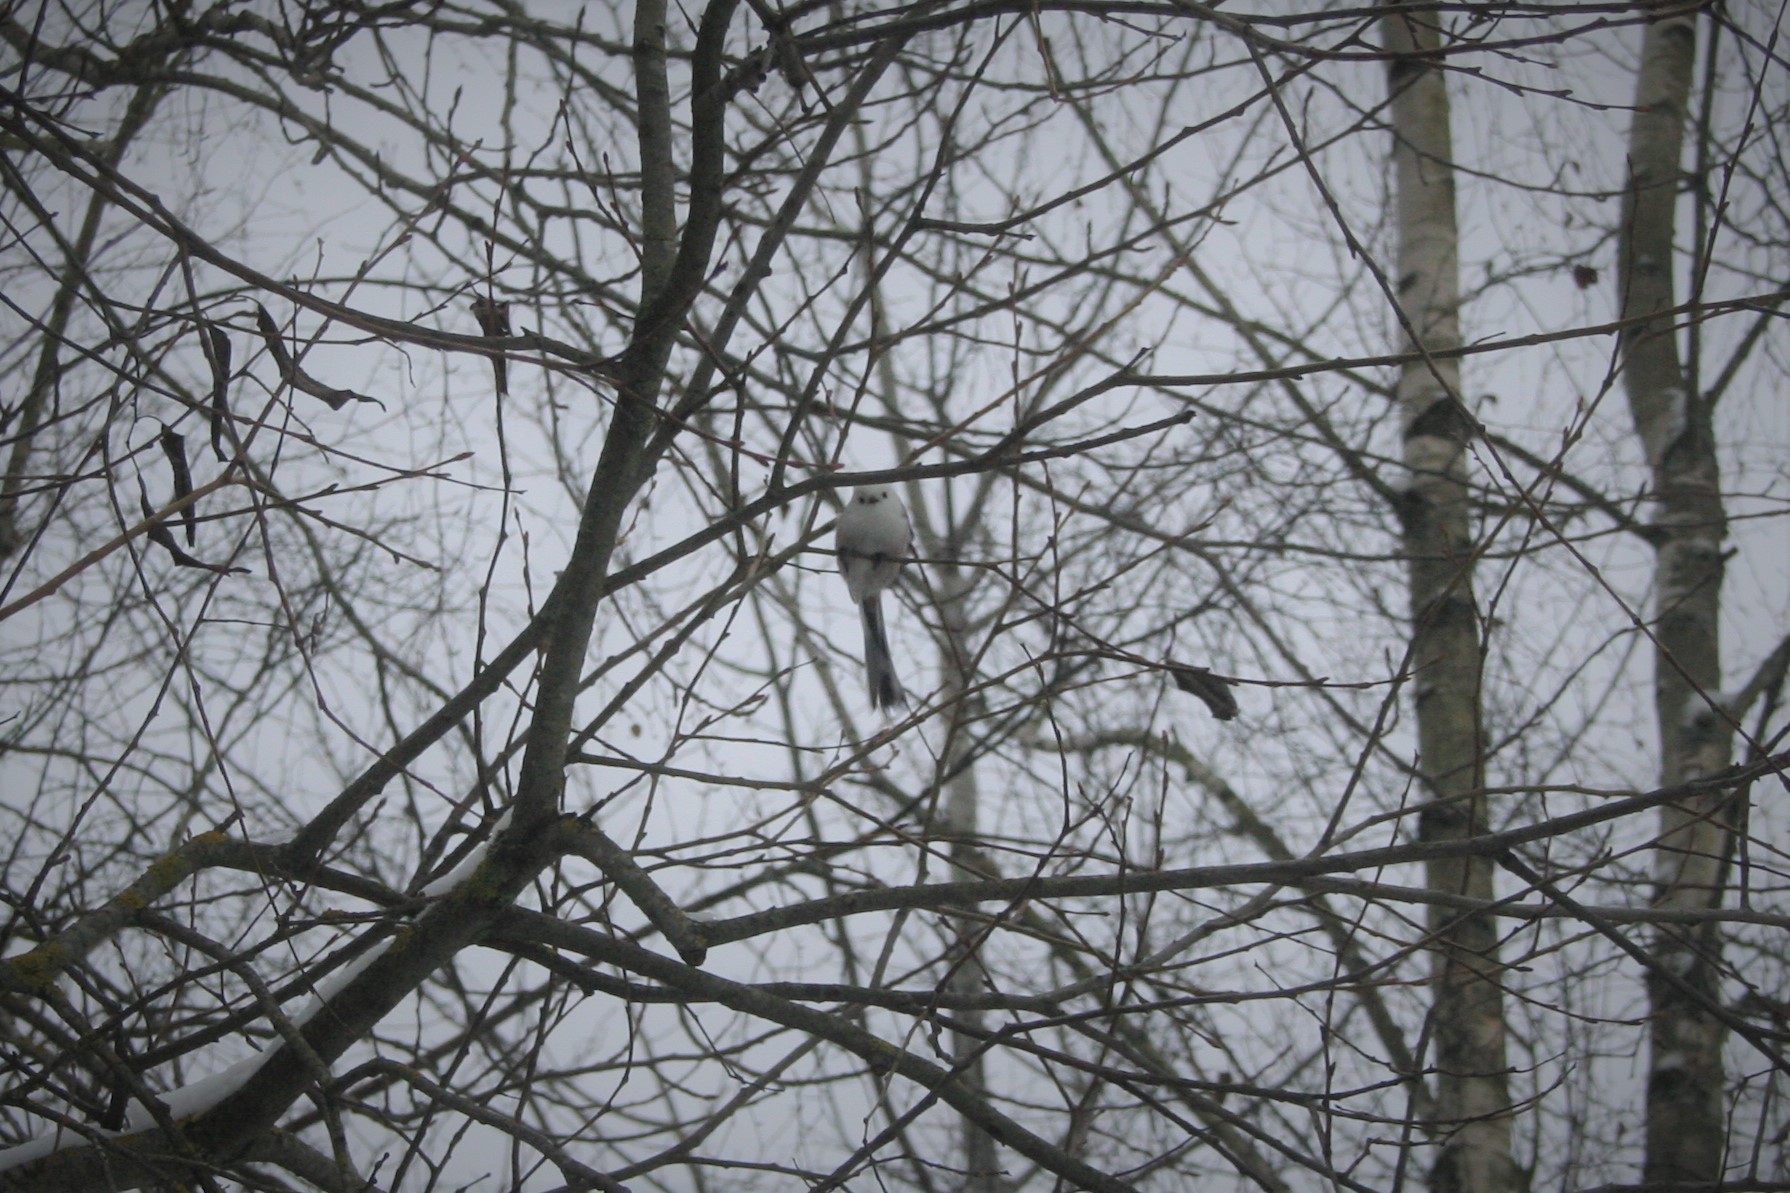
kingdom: Animalia
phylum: Chordata
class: Aves
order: Passeriformes
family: Aegithalidae
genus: Aegithalos
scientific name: Aegithalos caudatus
